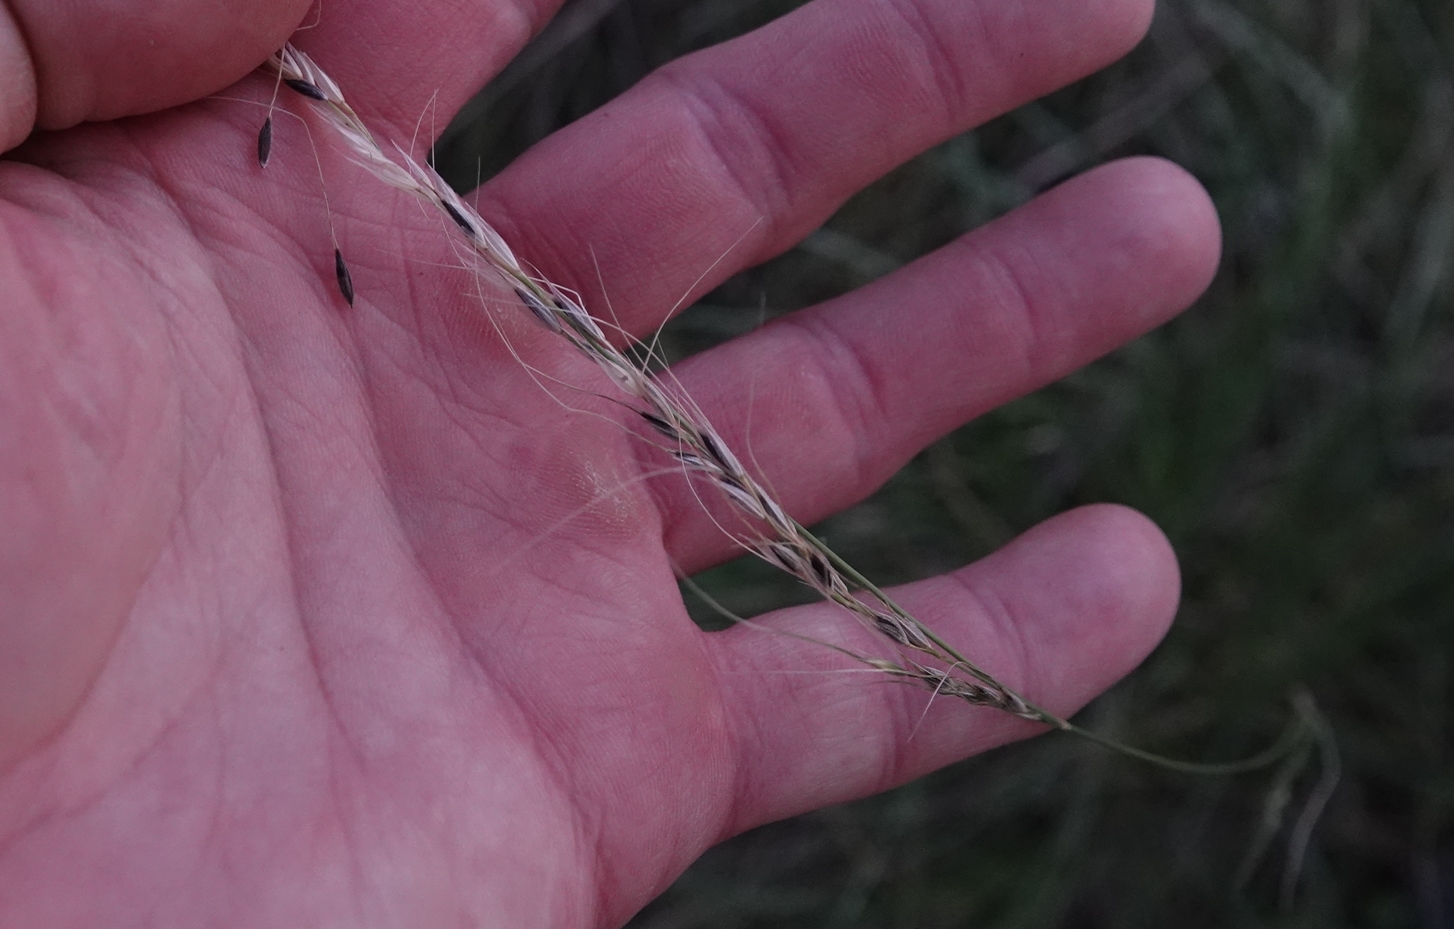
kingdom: Plantae
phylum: Tracheophyta
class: Liliopsida
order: Poales
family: Poaceae
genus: Nassella
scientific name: Nassella viridula
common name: Green needlegrass
